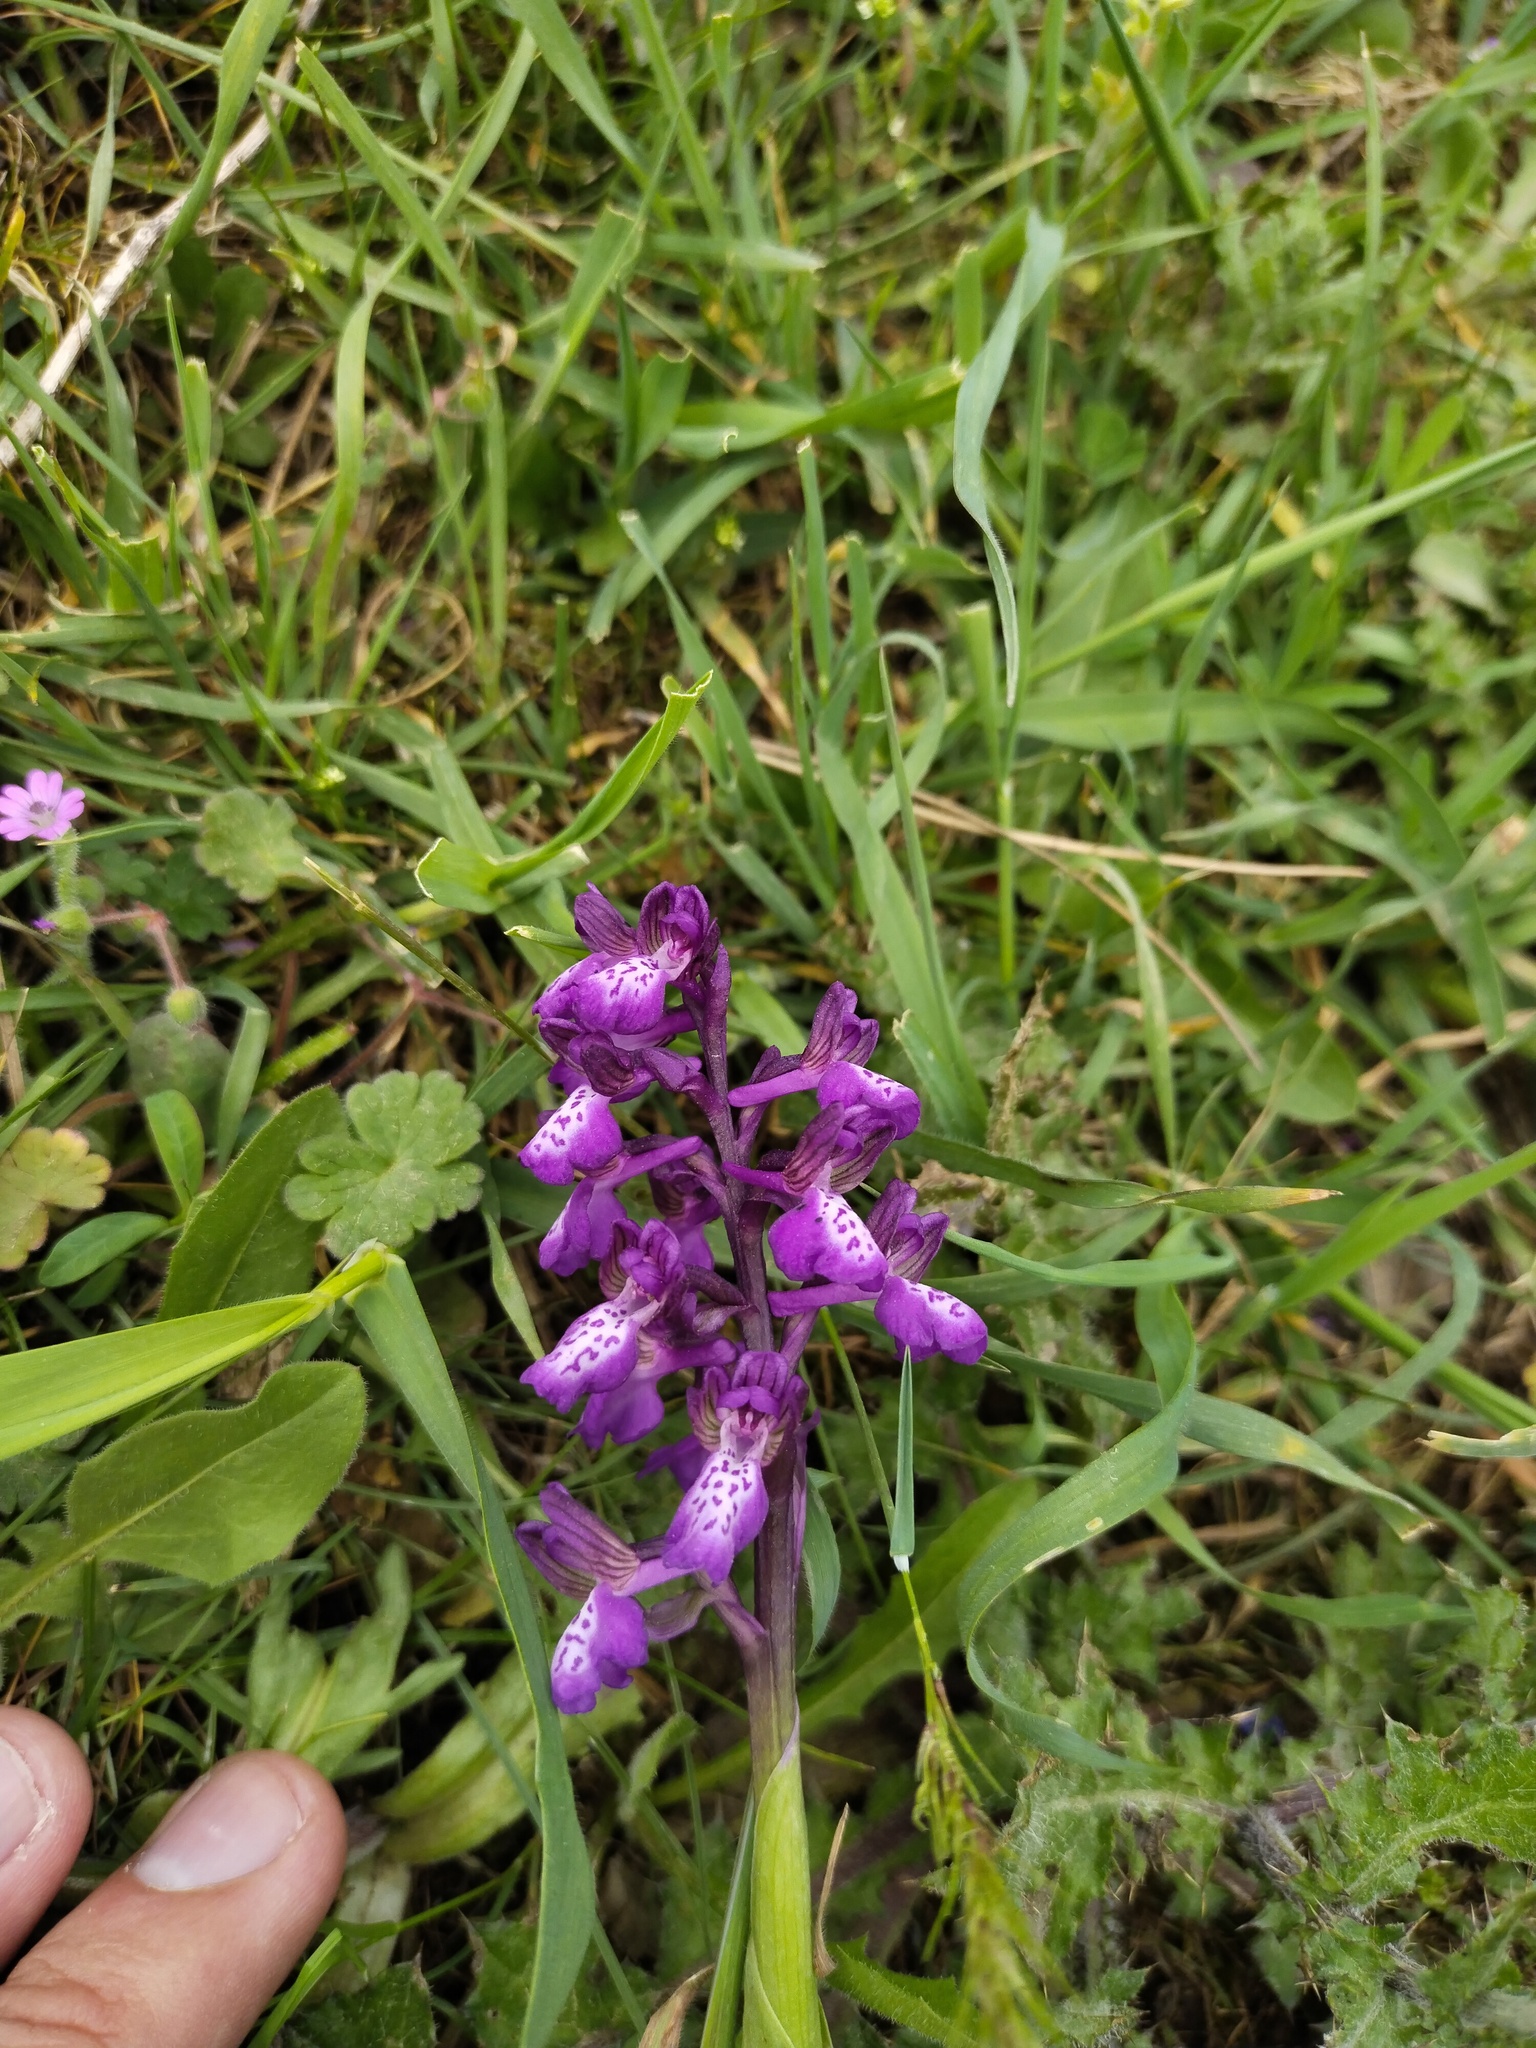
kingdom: Plantae
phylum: Tracheophyta
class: Liliopsida
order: Asparagales
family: Orchidaceae
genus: Anacamptis
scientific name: Anacamptis morio
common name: Green-winged orchid
